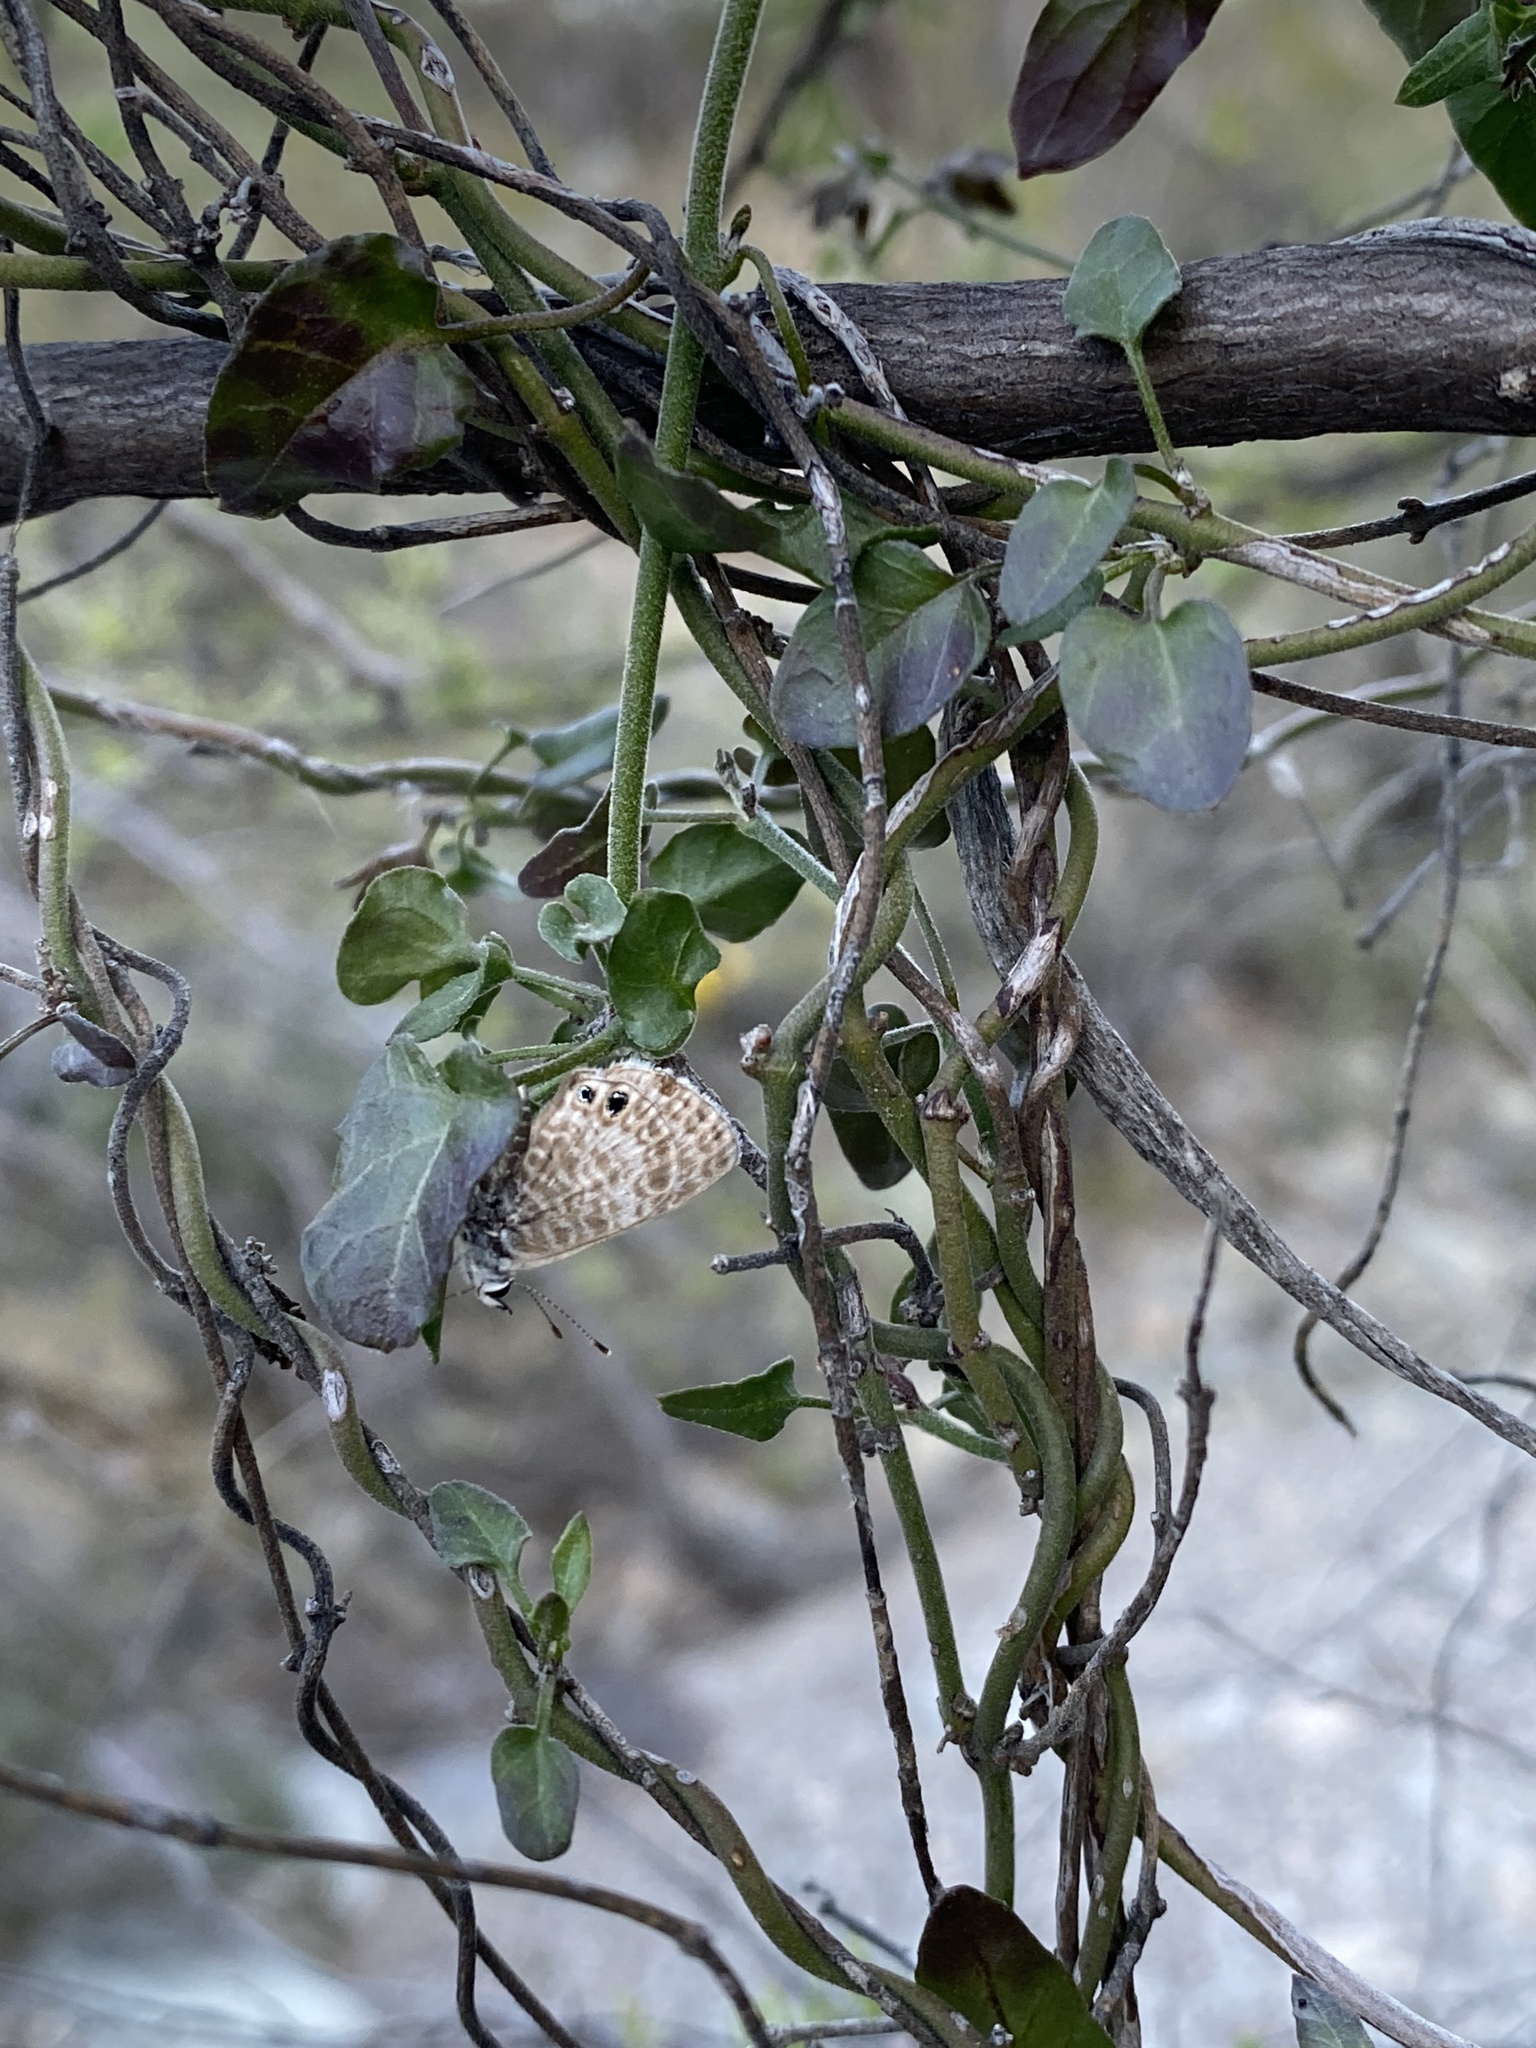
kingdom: Animalia
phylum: Arthropoda
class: Insecta
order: Lepidoptera
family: Lycaenidae
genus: Leptotes
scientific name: Leptotes marina
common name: Marine blue
